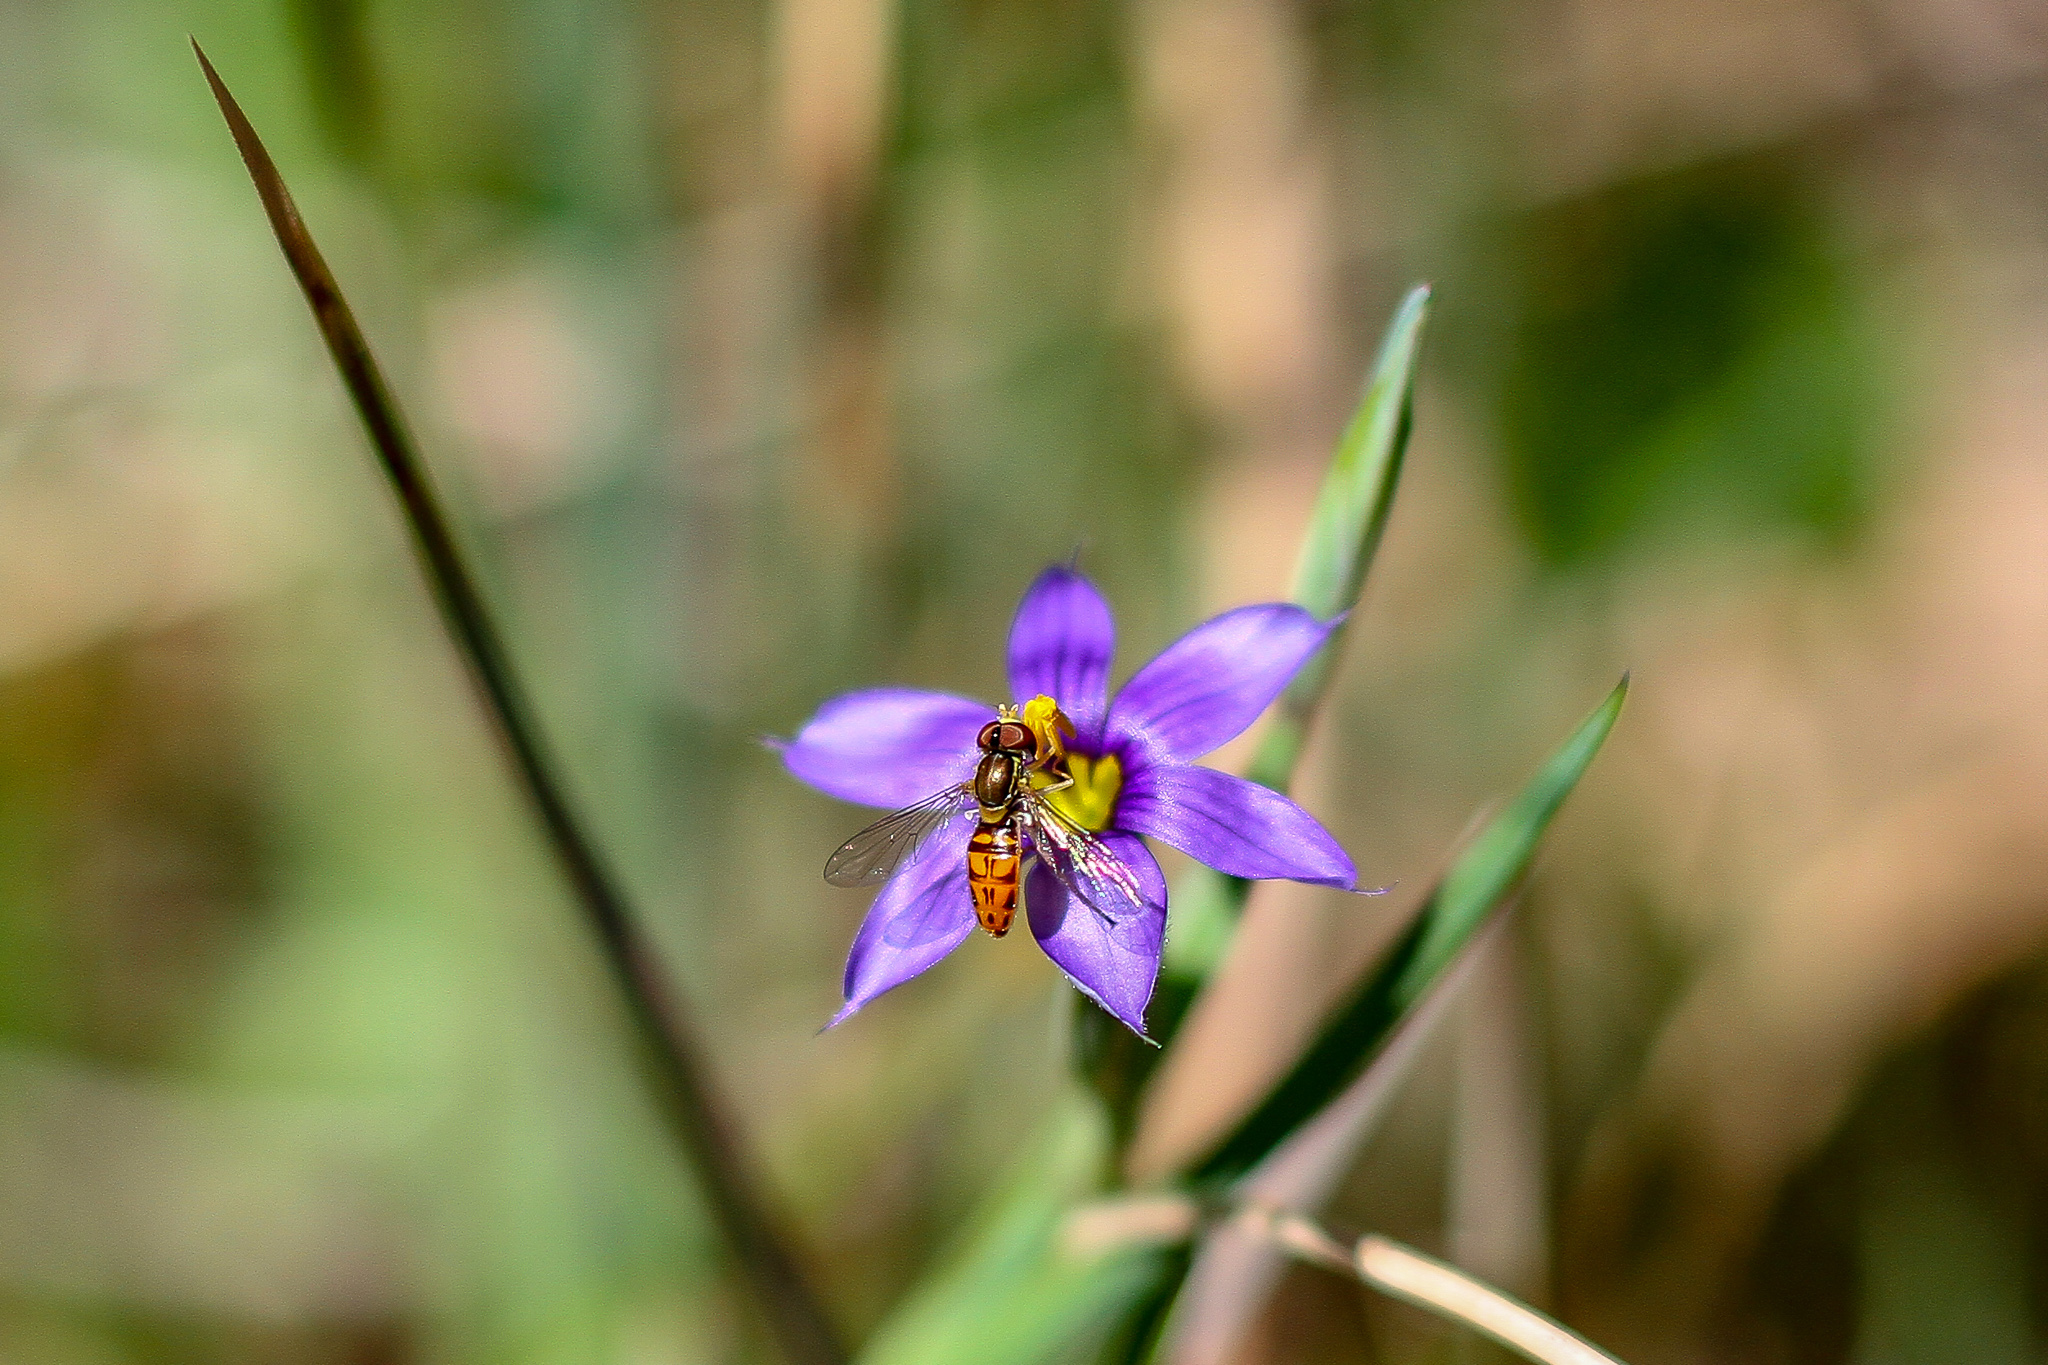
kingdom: Animalia
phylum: Arthropoda
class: Insecta
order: Diptera
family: Syrphidae
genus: Toxomerus
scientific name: Toxomerus marginatus
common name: Syrphid fly
